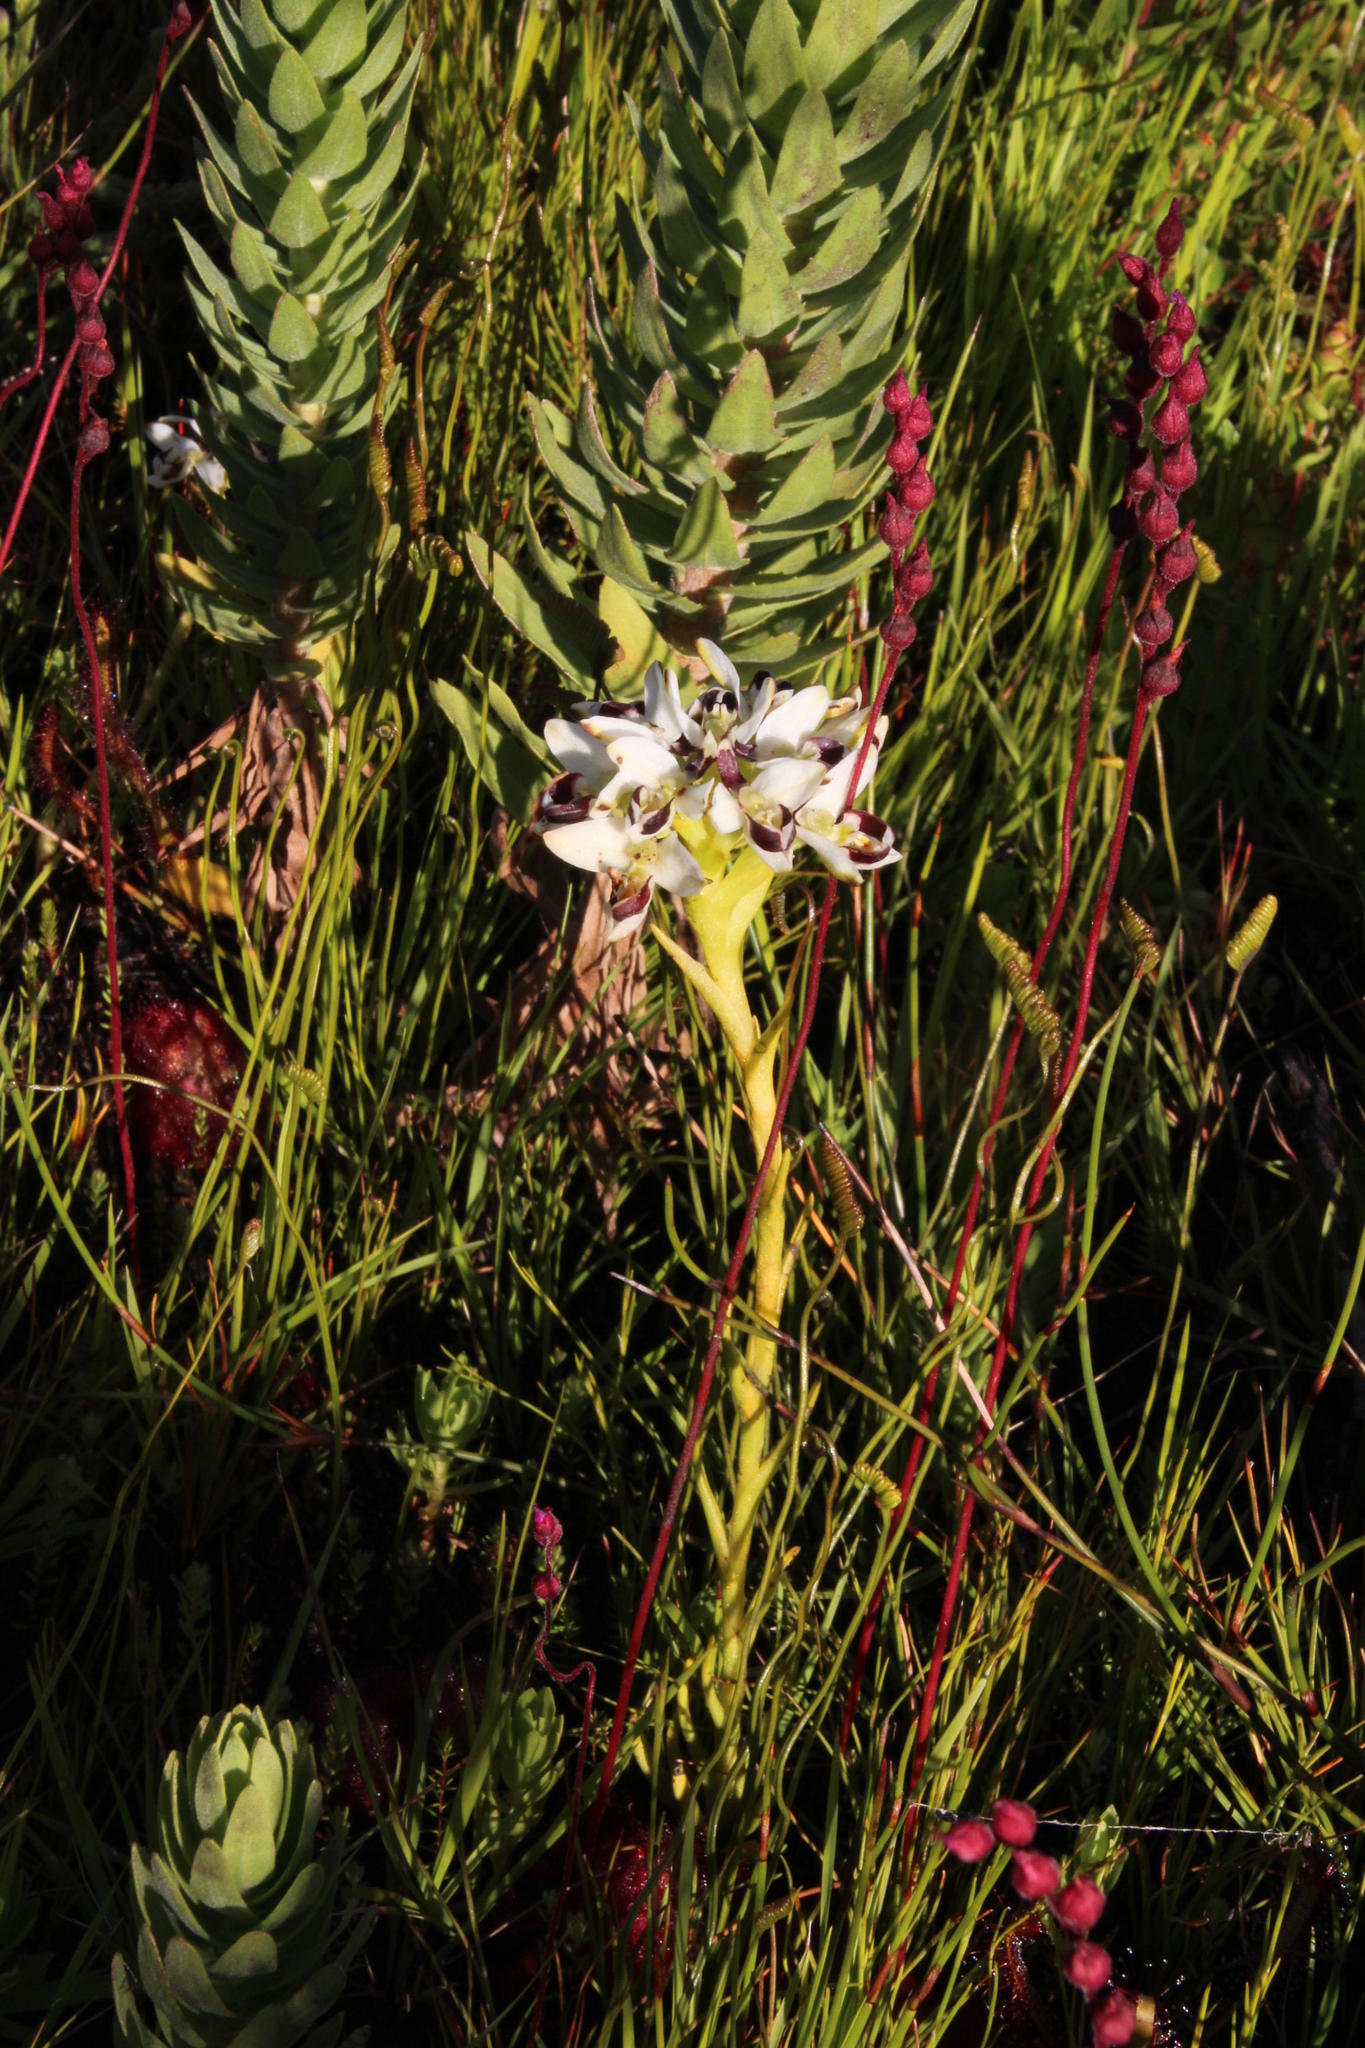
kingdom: Plantae
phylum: Tracheophyta
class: Liliopsida
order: Asparagales
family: Orchidaceae
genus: Disa
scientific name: Disa bivalvata
